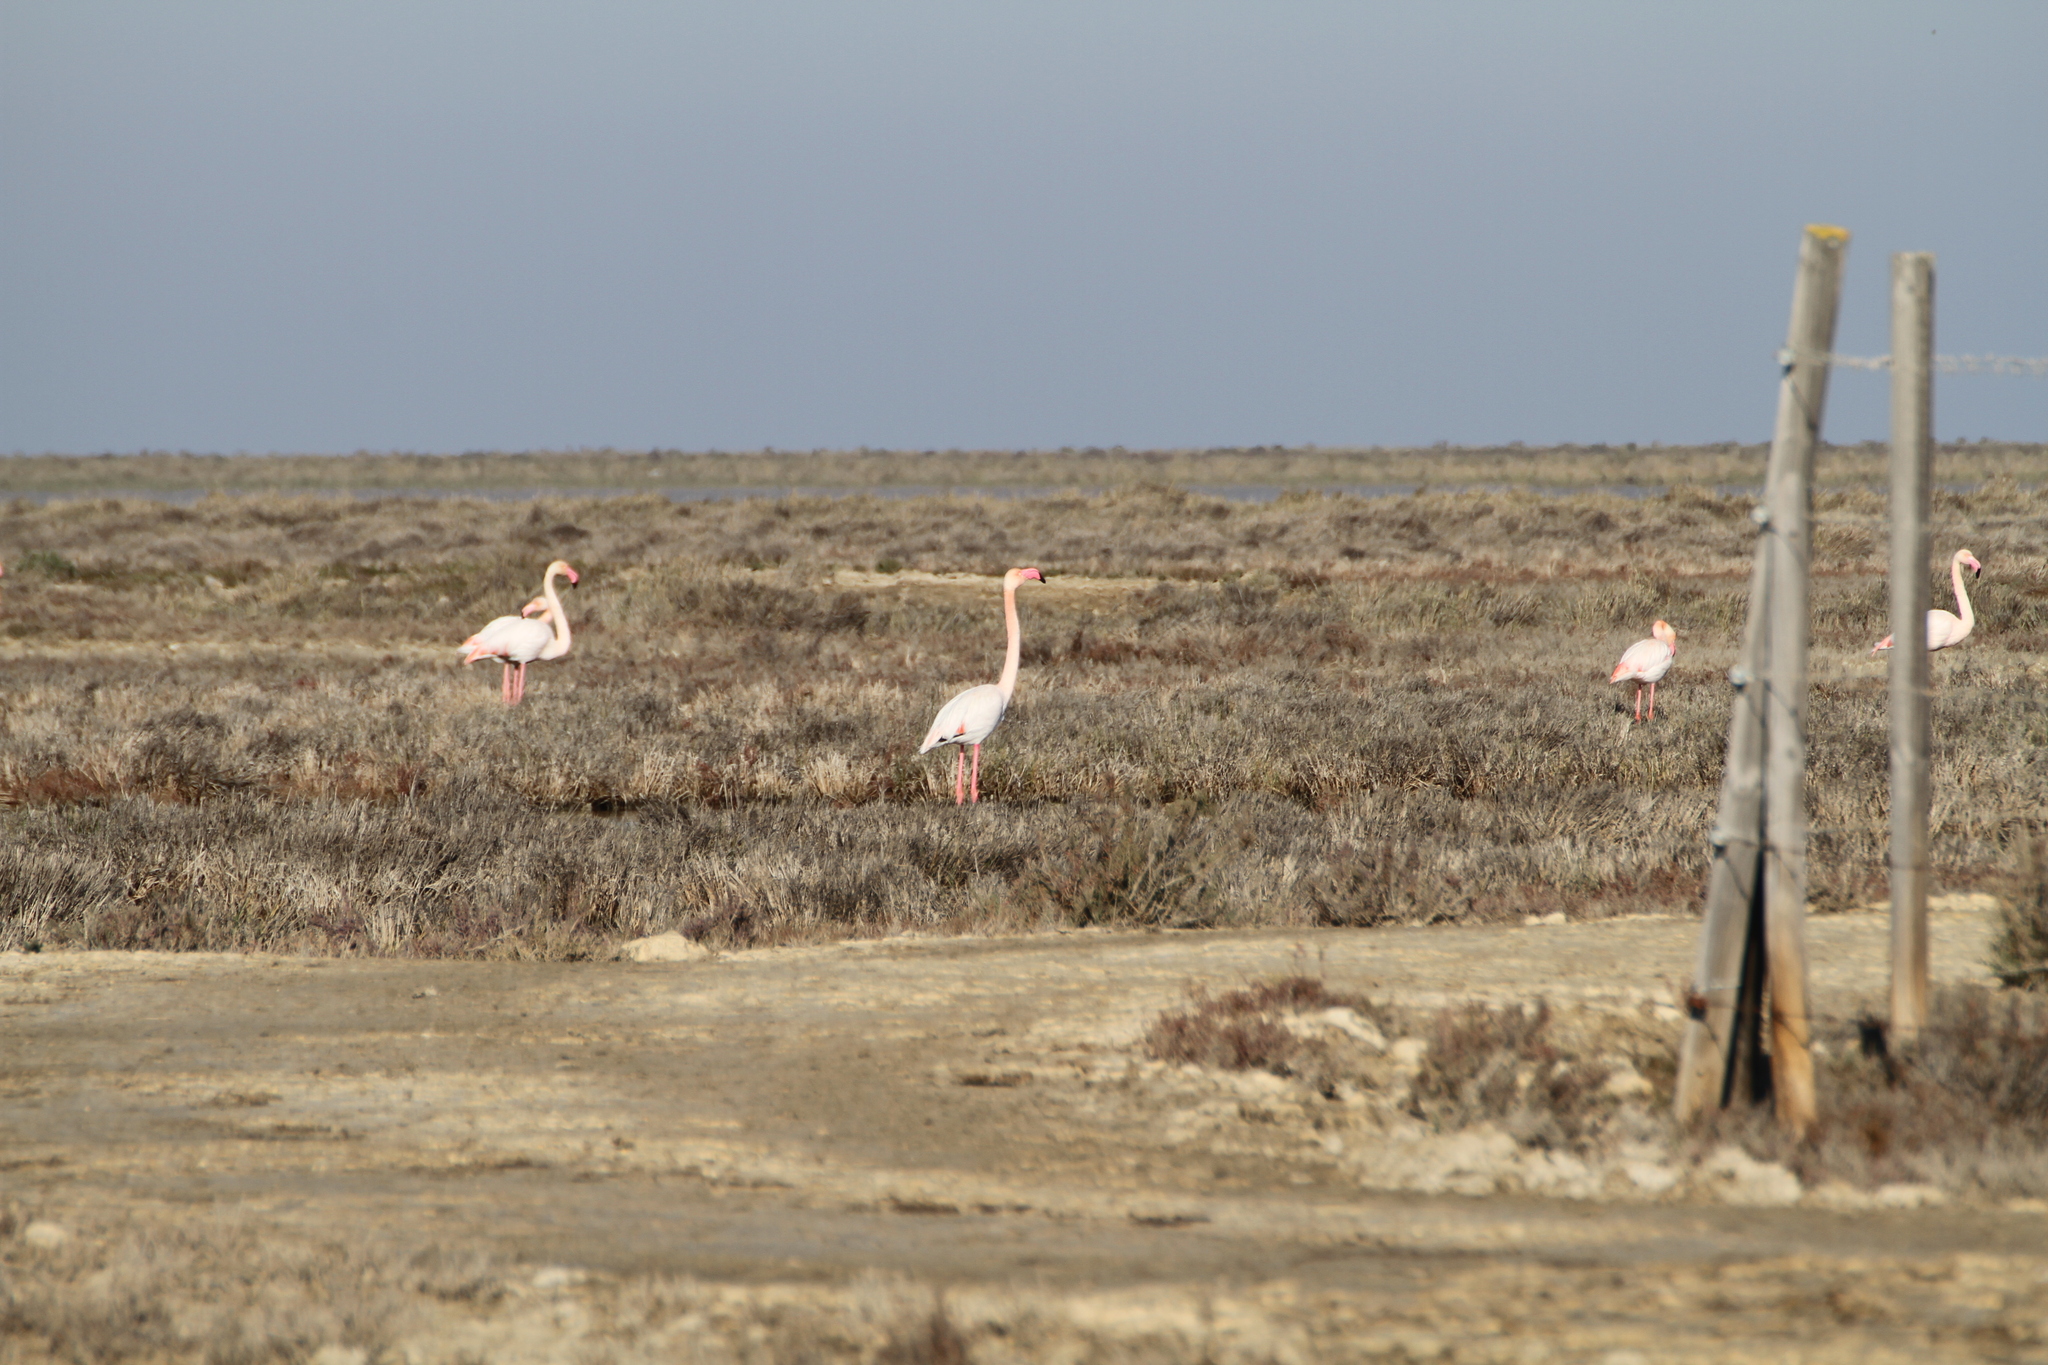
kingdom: Animalia
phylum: Chordata
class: Aves
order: Phoenicopteriformes
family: Phoenicopteridae
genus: Phoenicopterus
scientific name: Phoenicopterus roseus
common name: Greater flamingo
